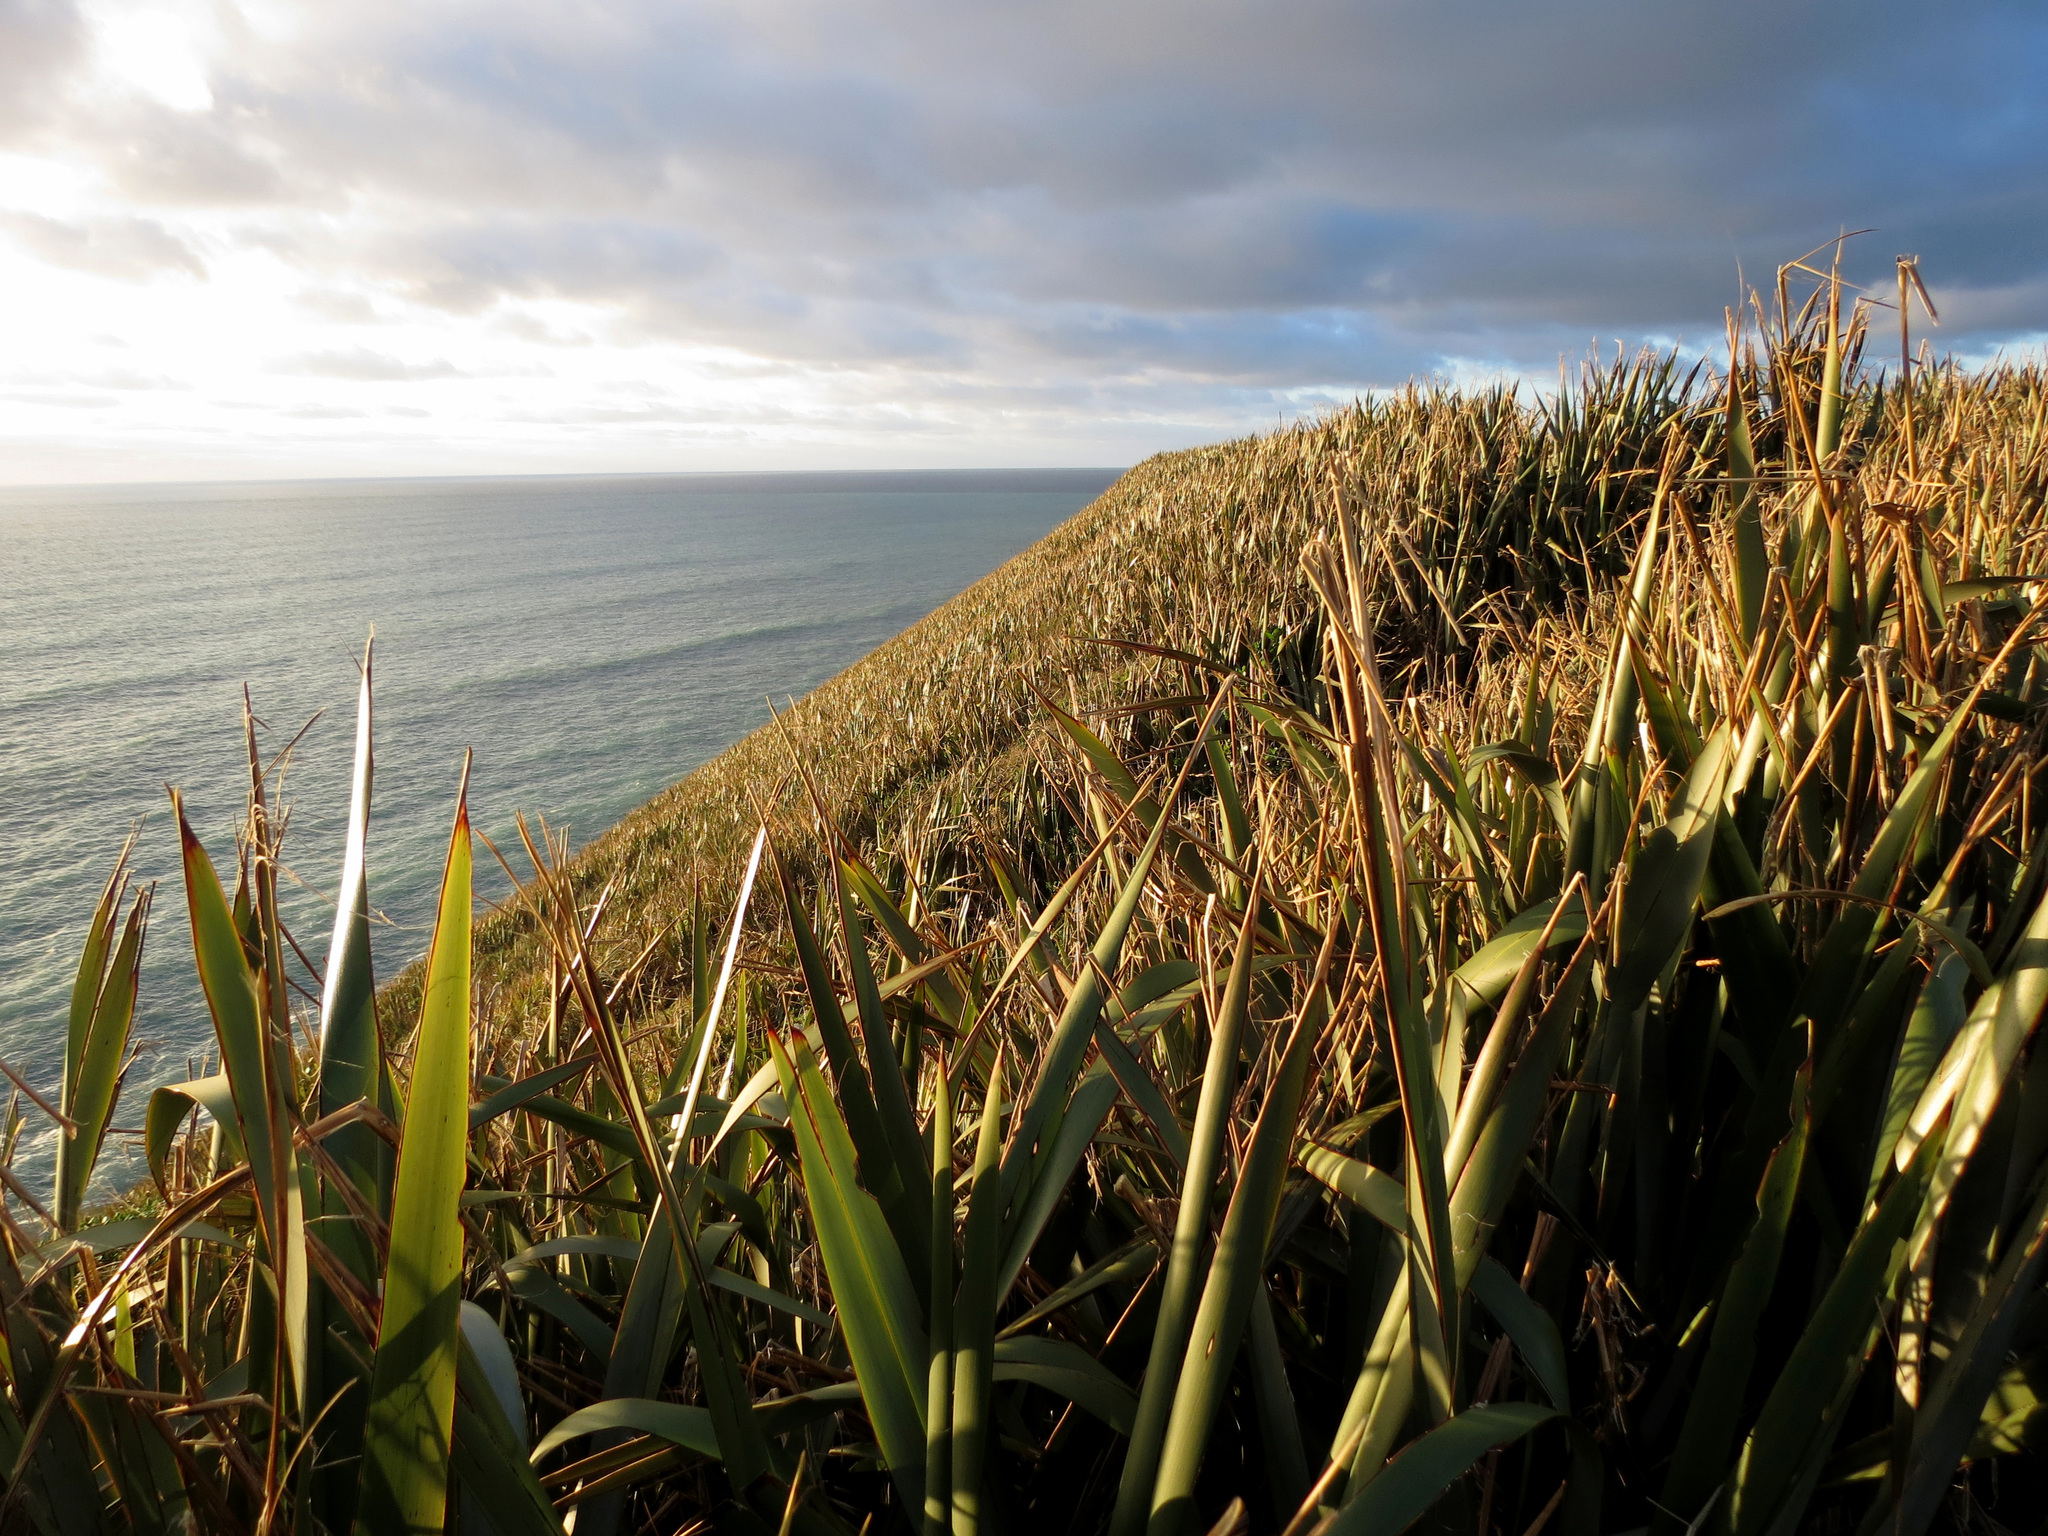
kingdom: Plantae
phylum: Tracheophyta
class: Liliopsida
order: Asparagales
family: Asphodelaceae
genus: Phormium
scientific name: Phormium tenax
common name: New zealand flax
